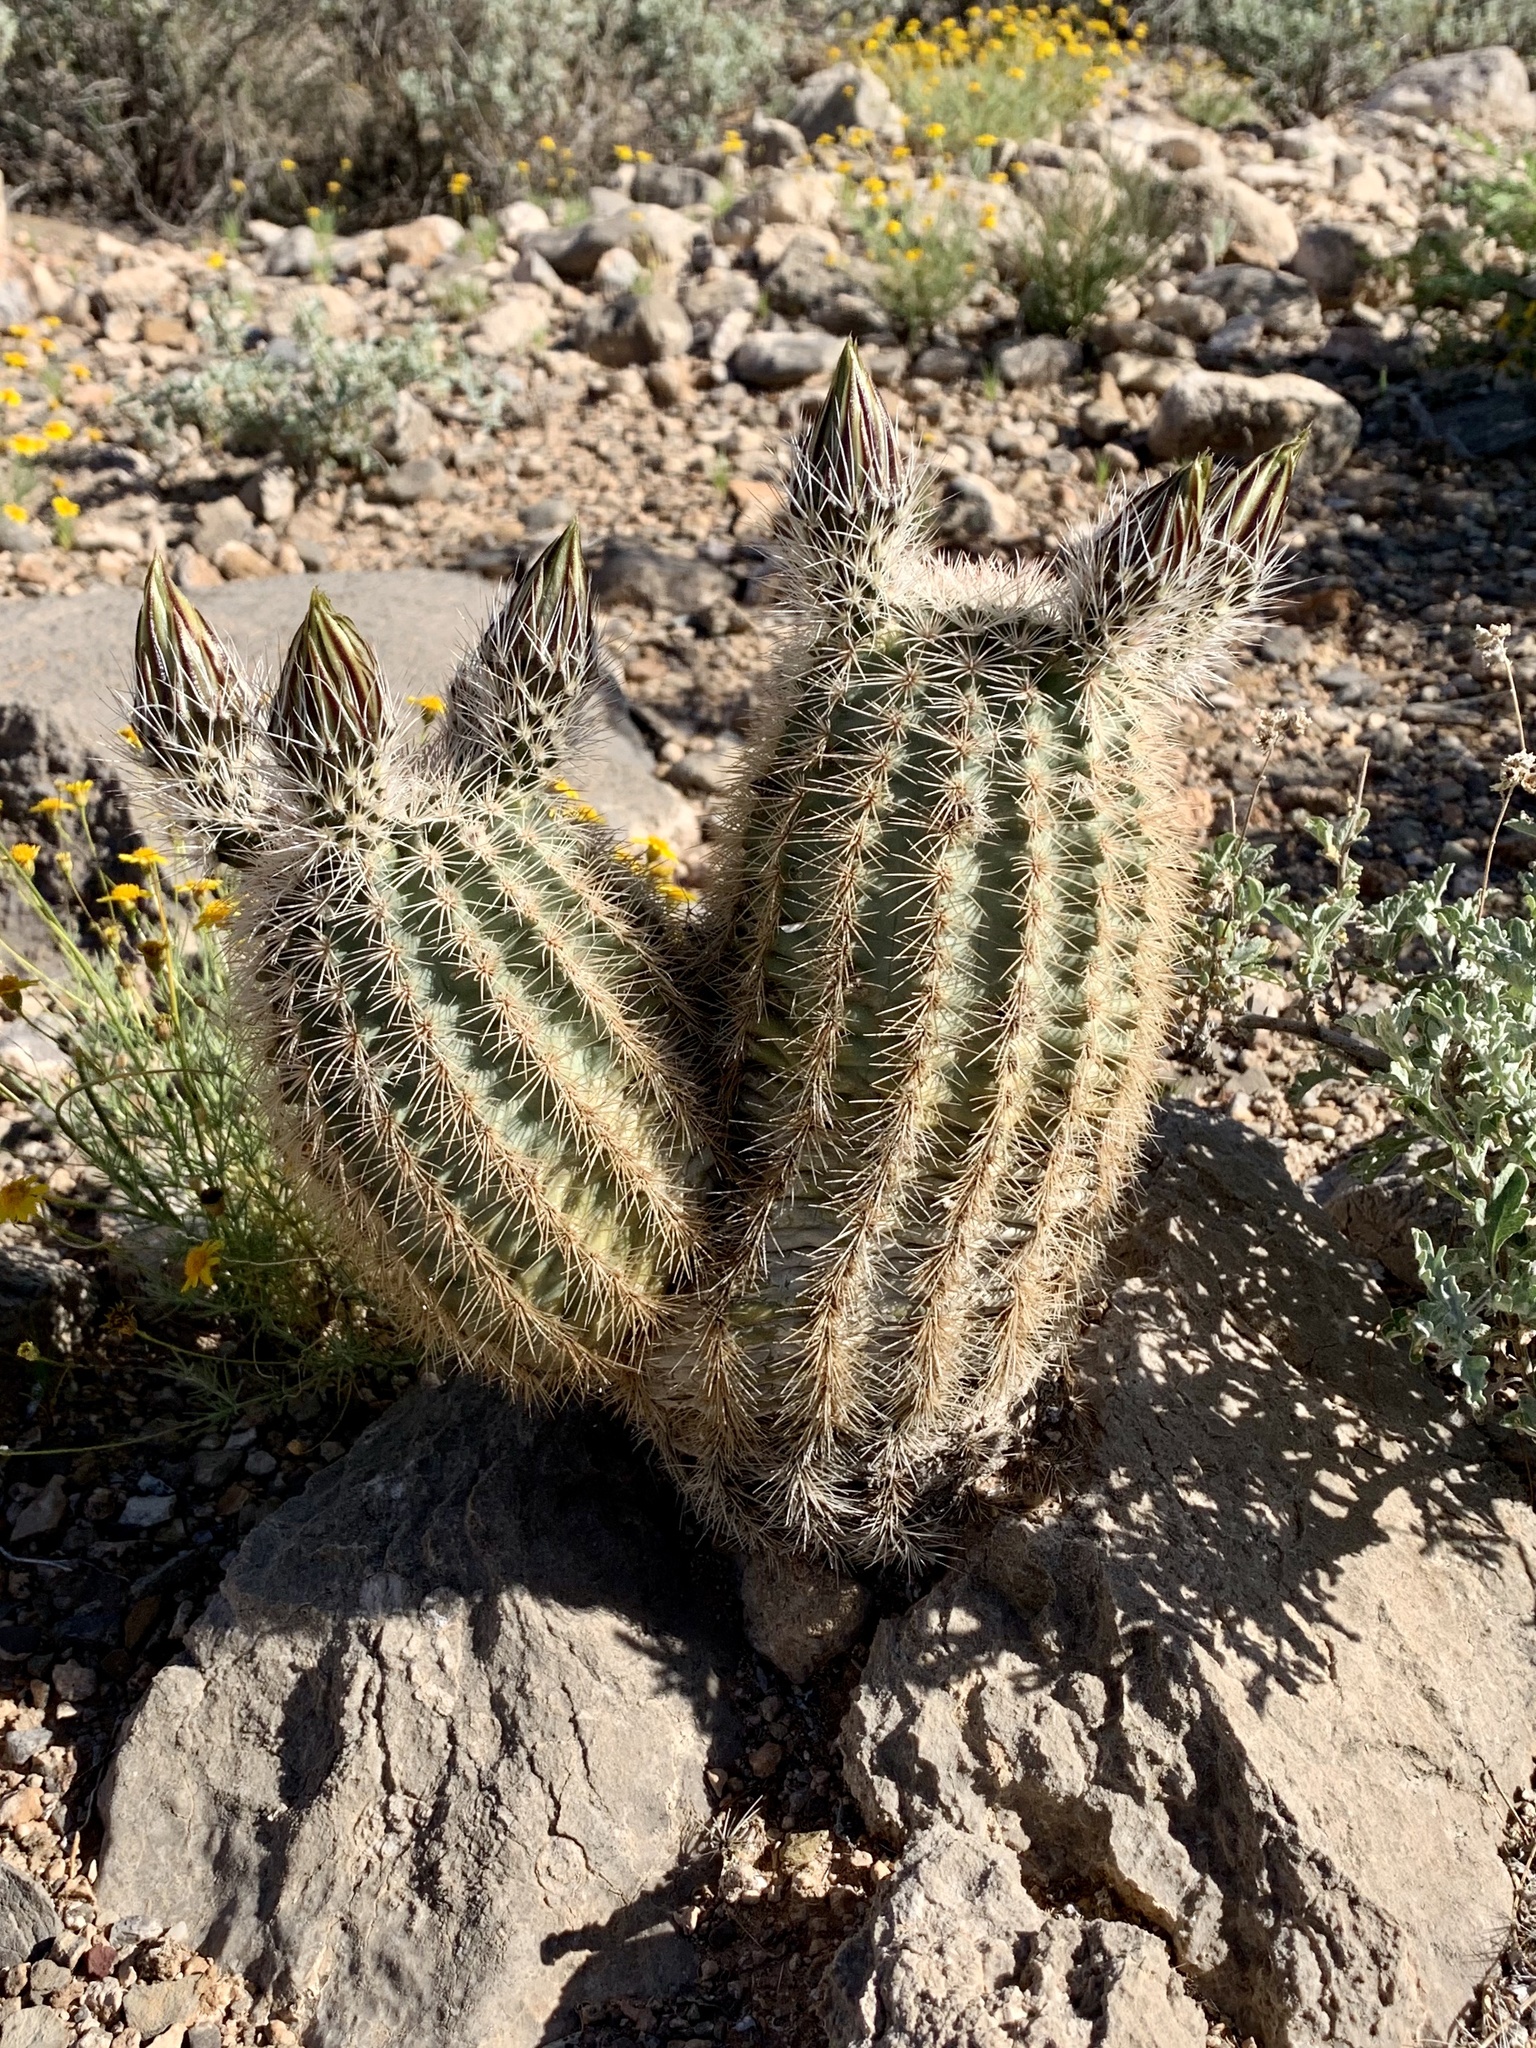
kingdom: Plantae
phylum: Tracheophyta
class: Magnoliopsida
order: Caryophyllales
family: Cactaceae
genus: Echinocereus
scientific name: Echinocereus dasyacanthus
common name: Spiny hedgehog cactus
